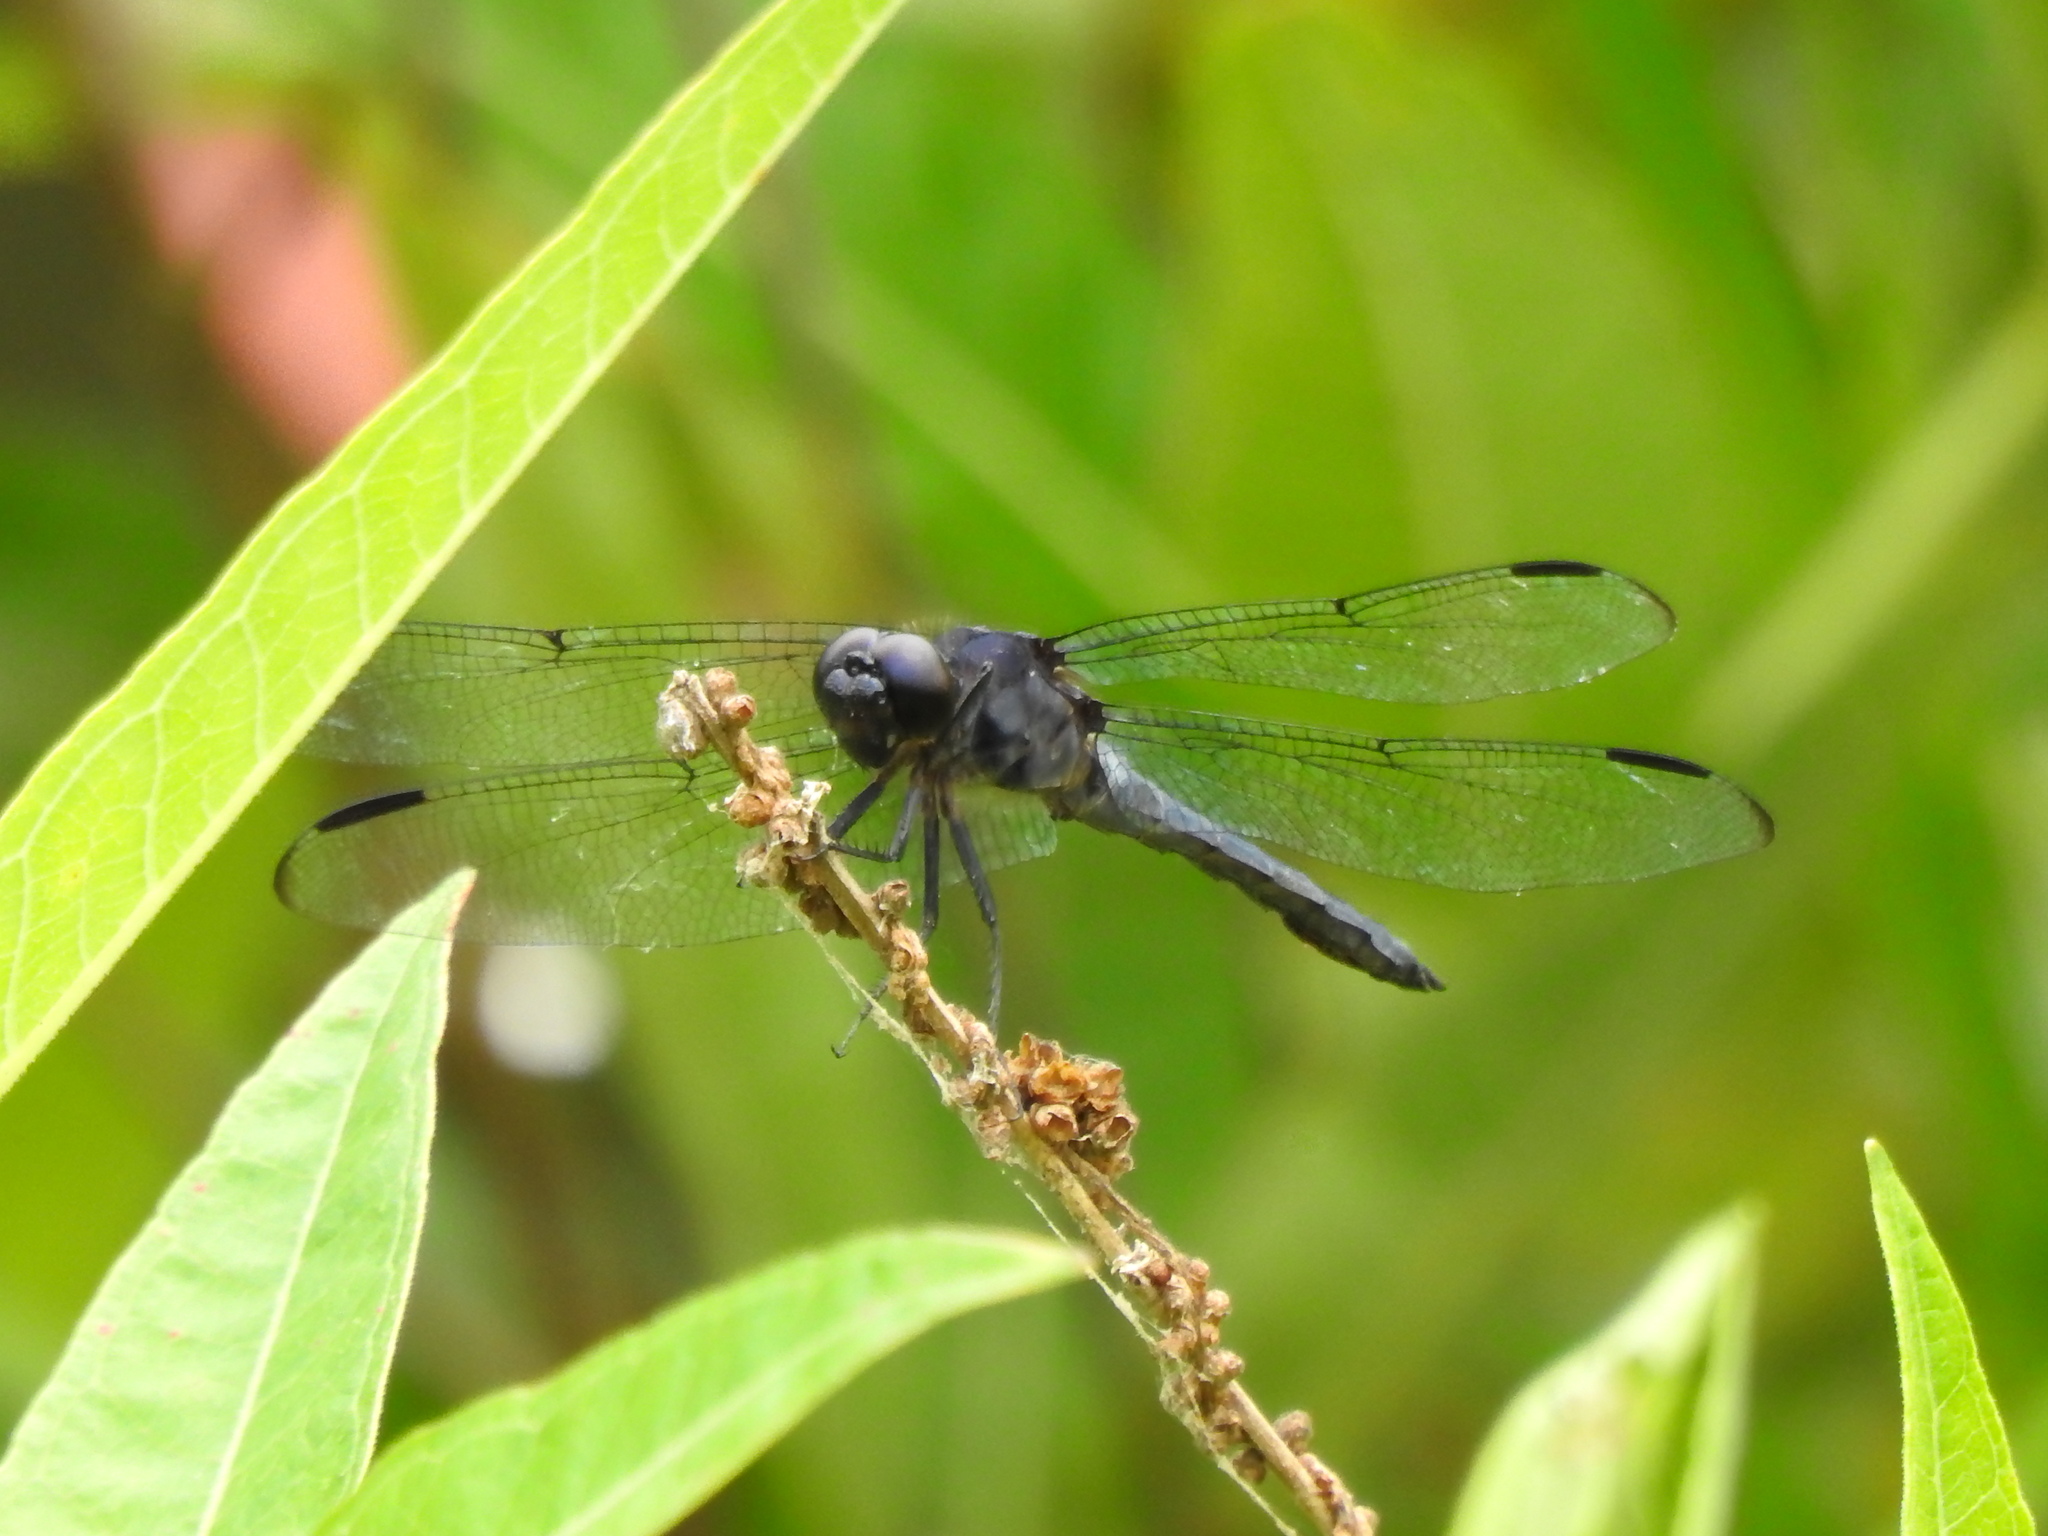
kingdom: Animalia
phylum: Arthropoda
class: Insecta
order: Odonata
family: Libellulidae
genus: Libellula
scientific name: Libellula incesta
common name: Slaty skimmer
